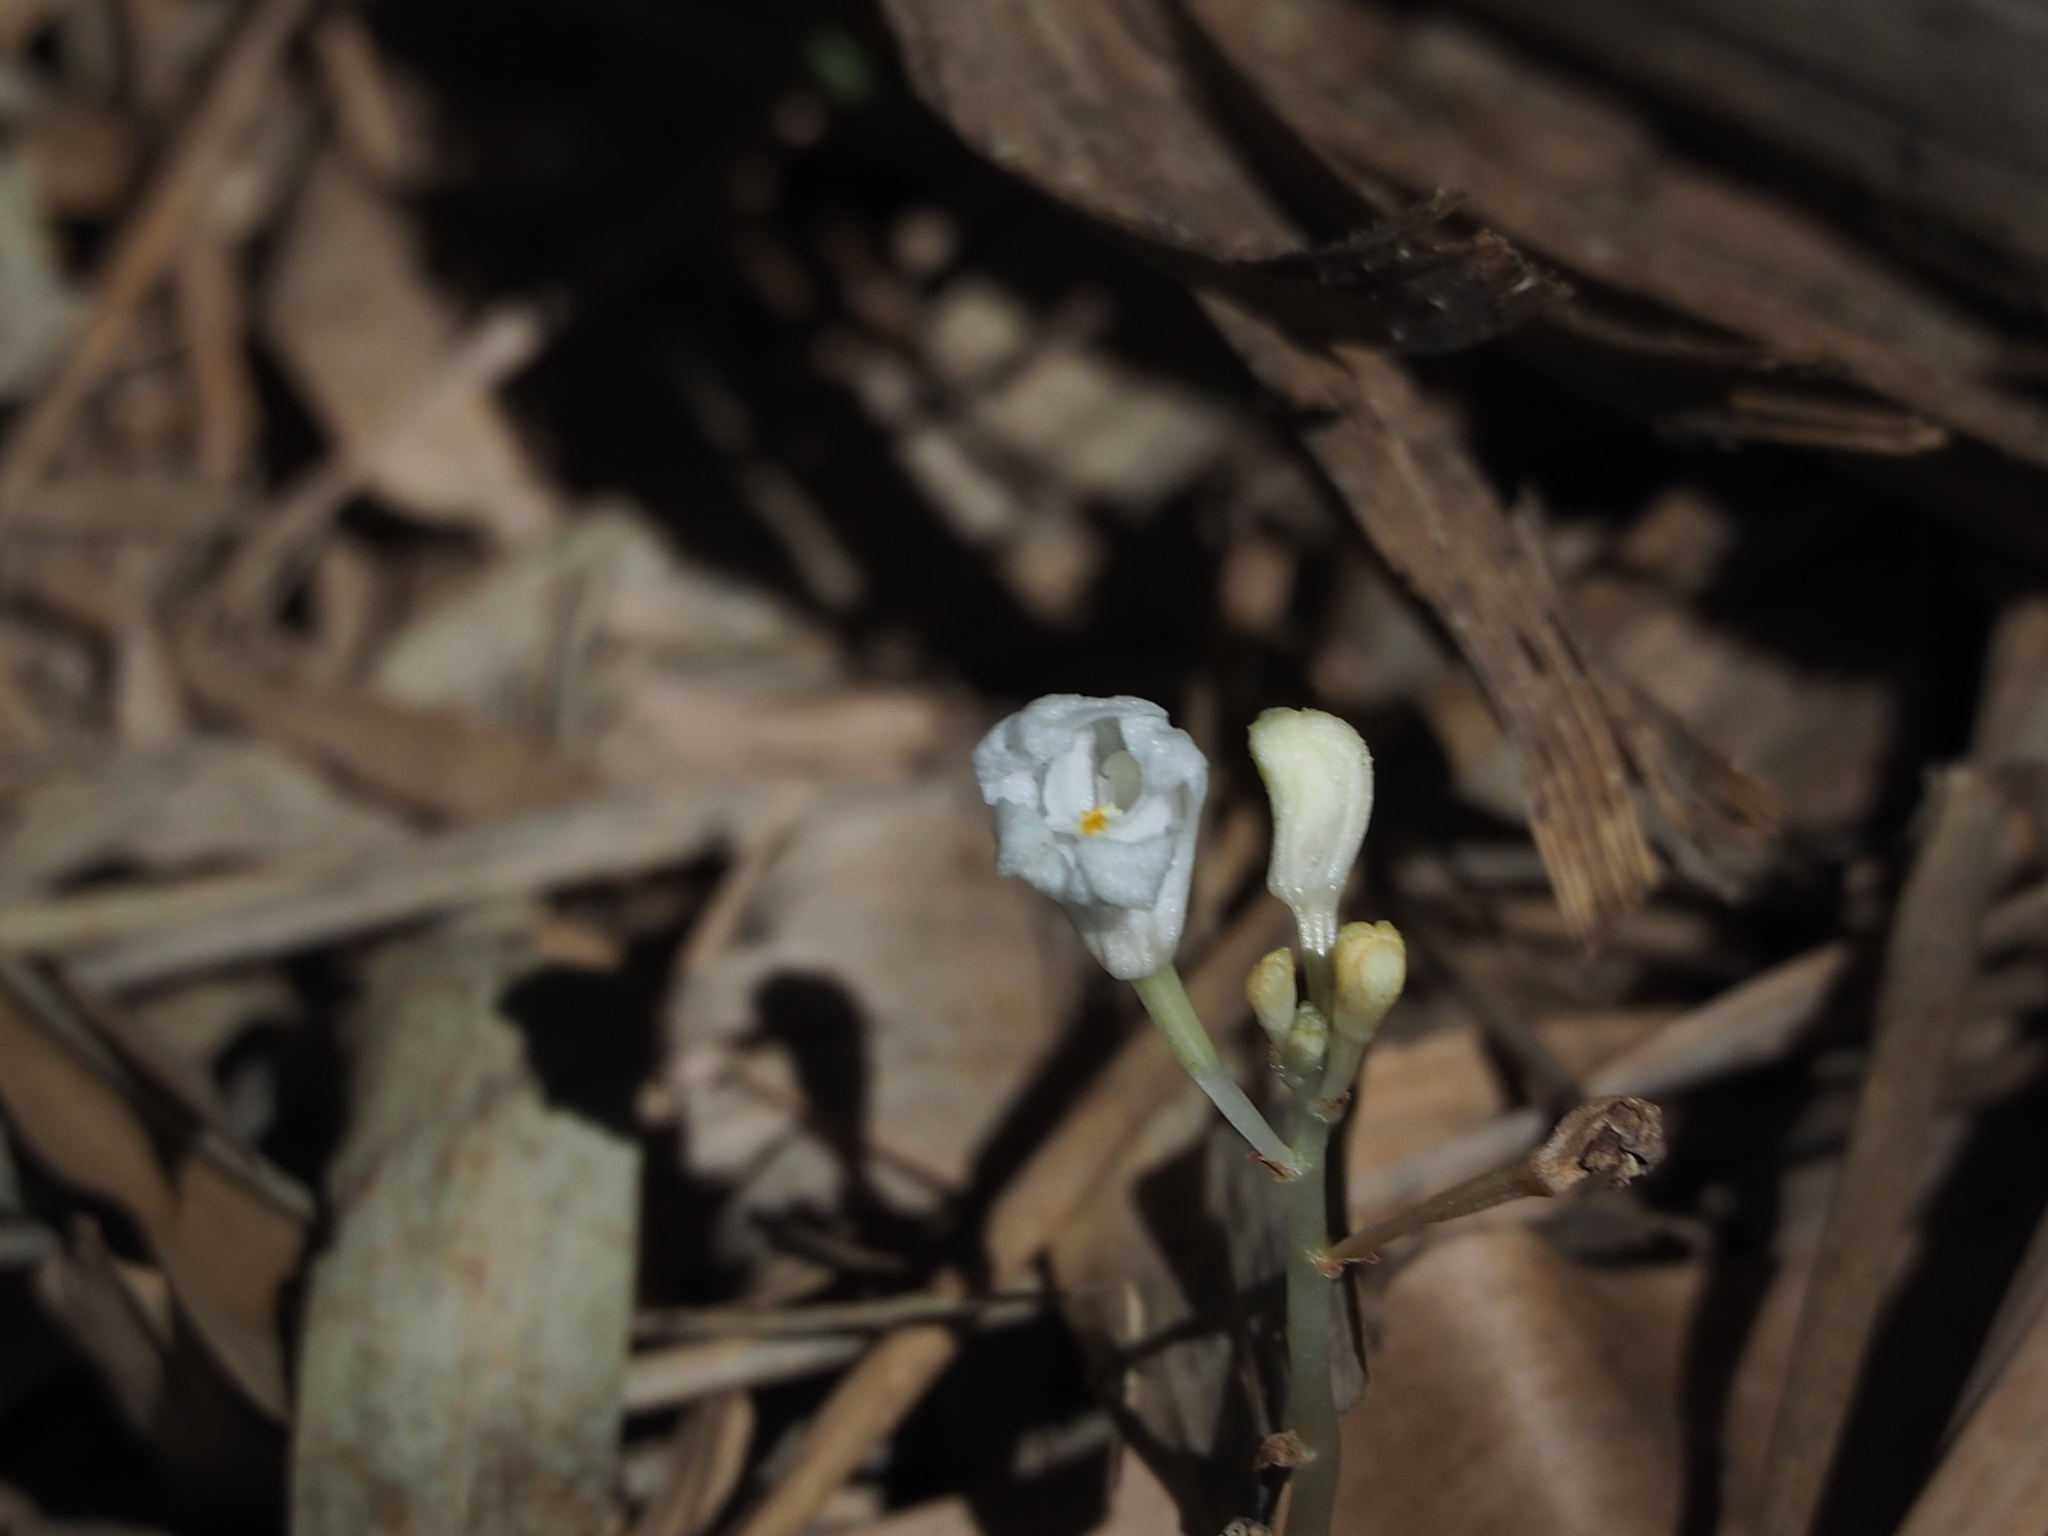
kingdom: Plantae
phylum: Tracheophyta
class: Liliopsida
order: Asparagales
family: Orchidaceae
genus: Didymoplexis
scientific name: Didymoplexis pallens
